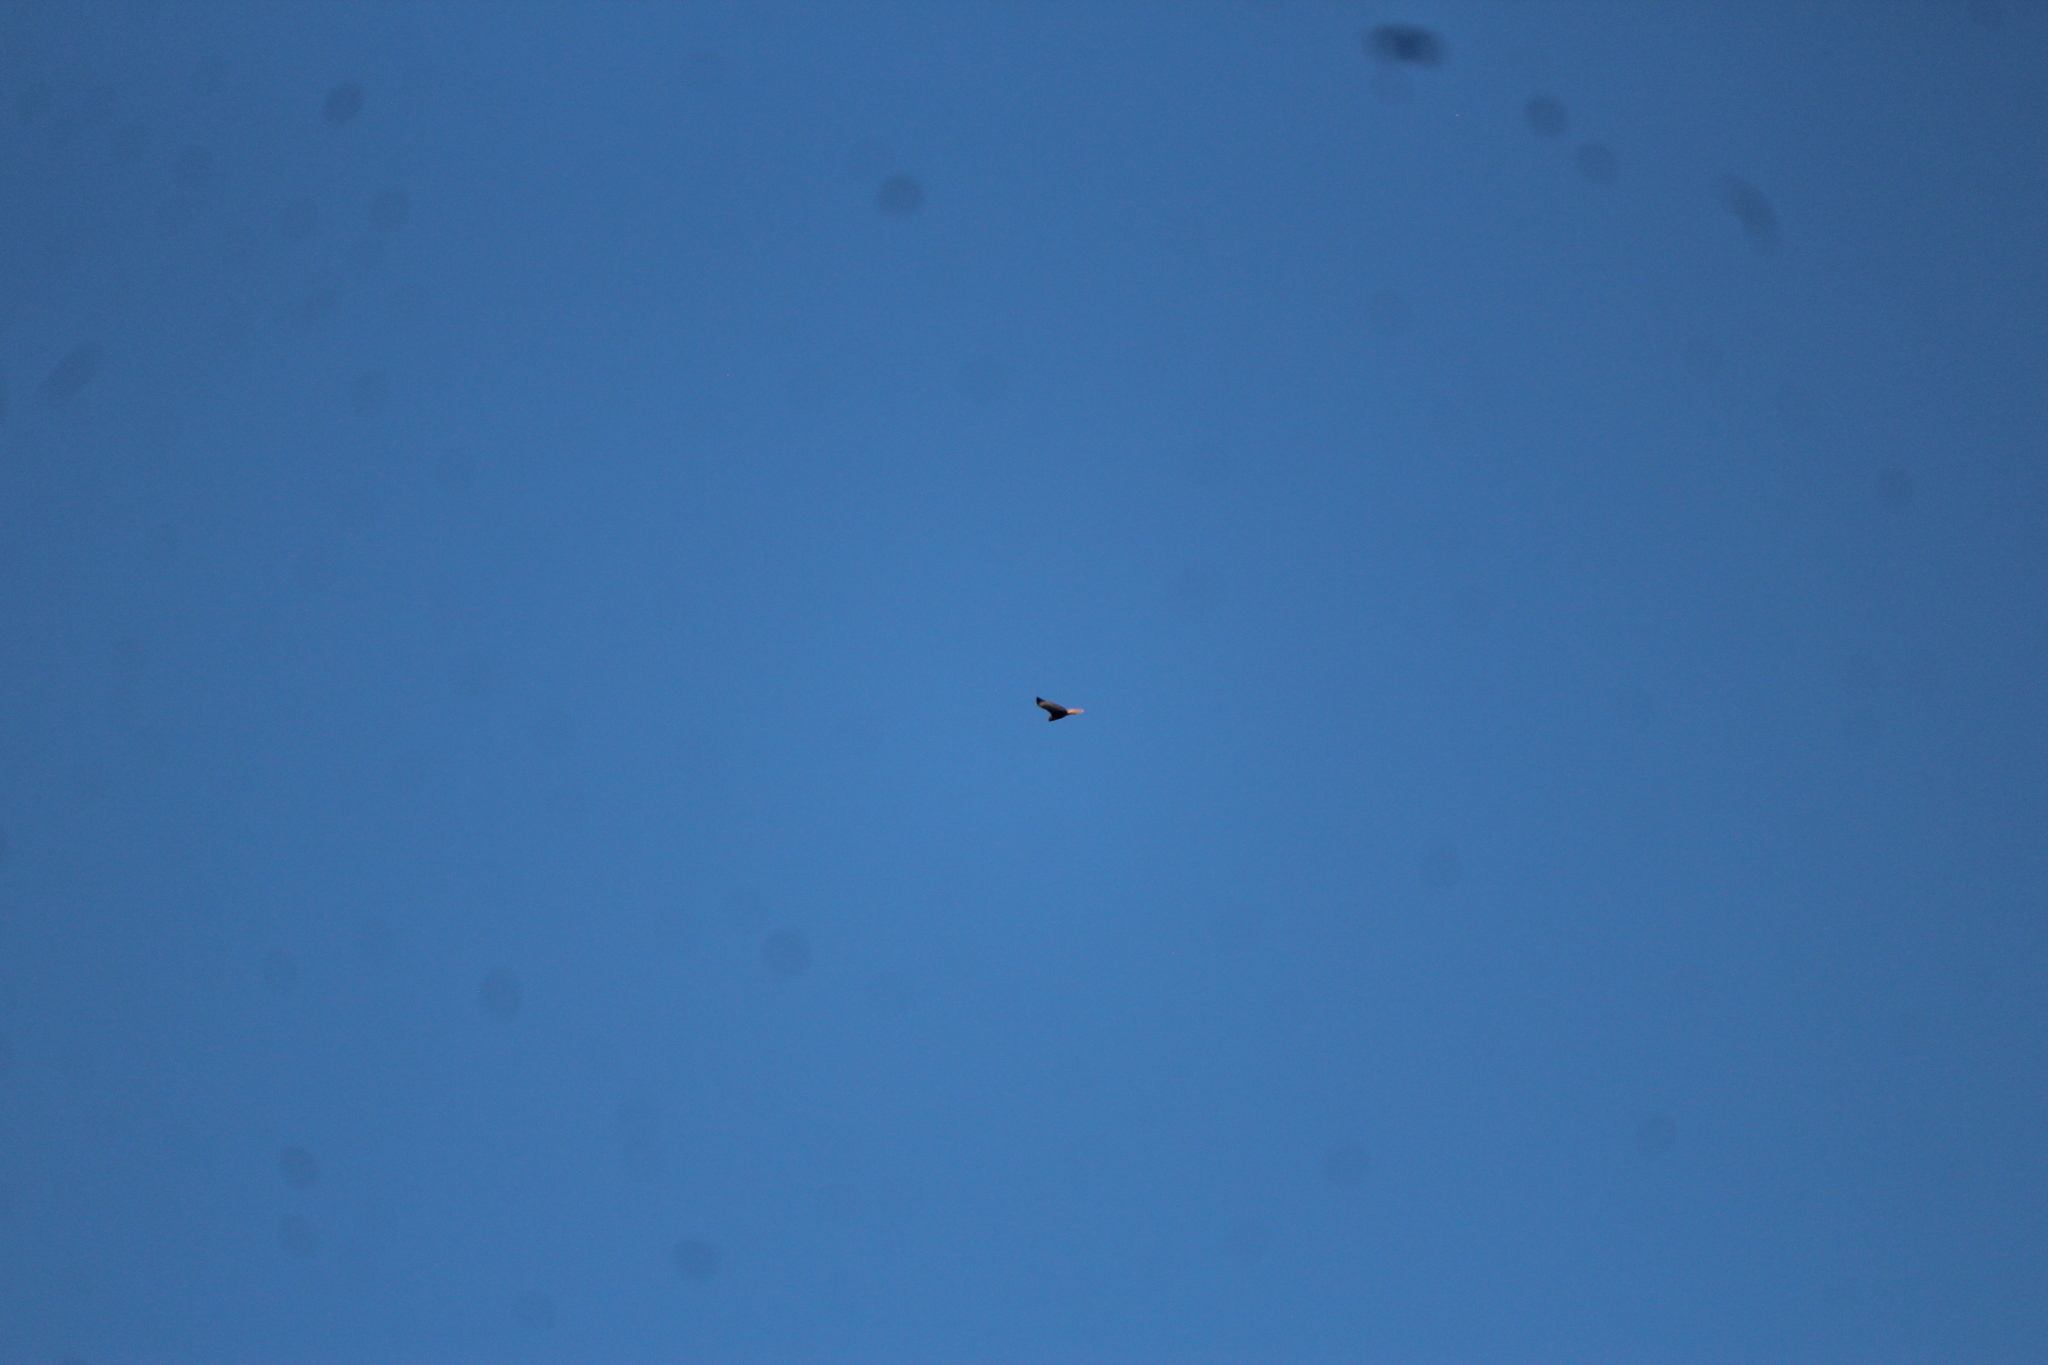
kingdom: Animalia
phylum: Chordata
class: Aves
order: Accipitriformes
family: Accipitridae
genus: Buteo
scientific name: Buteo jamaicensis
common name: Red-tailed hawk
